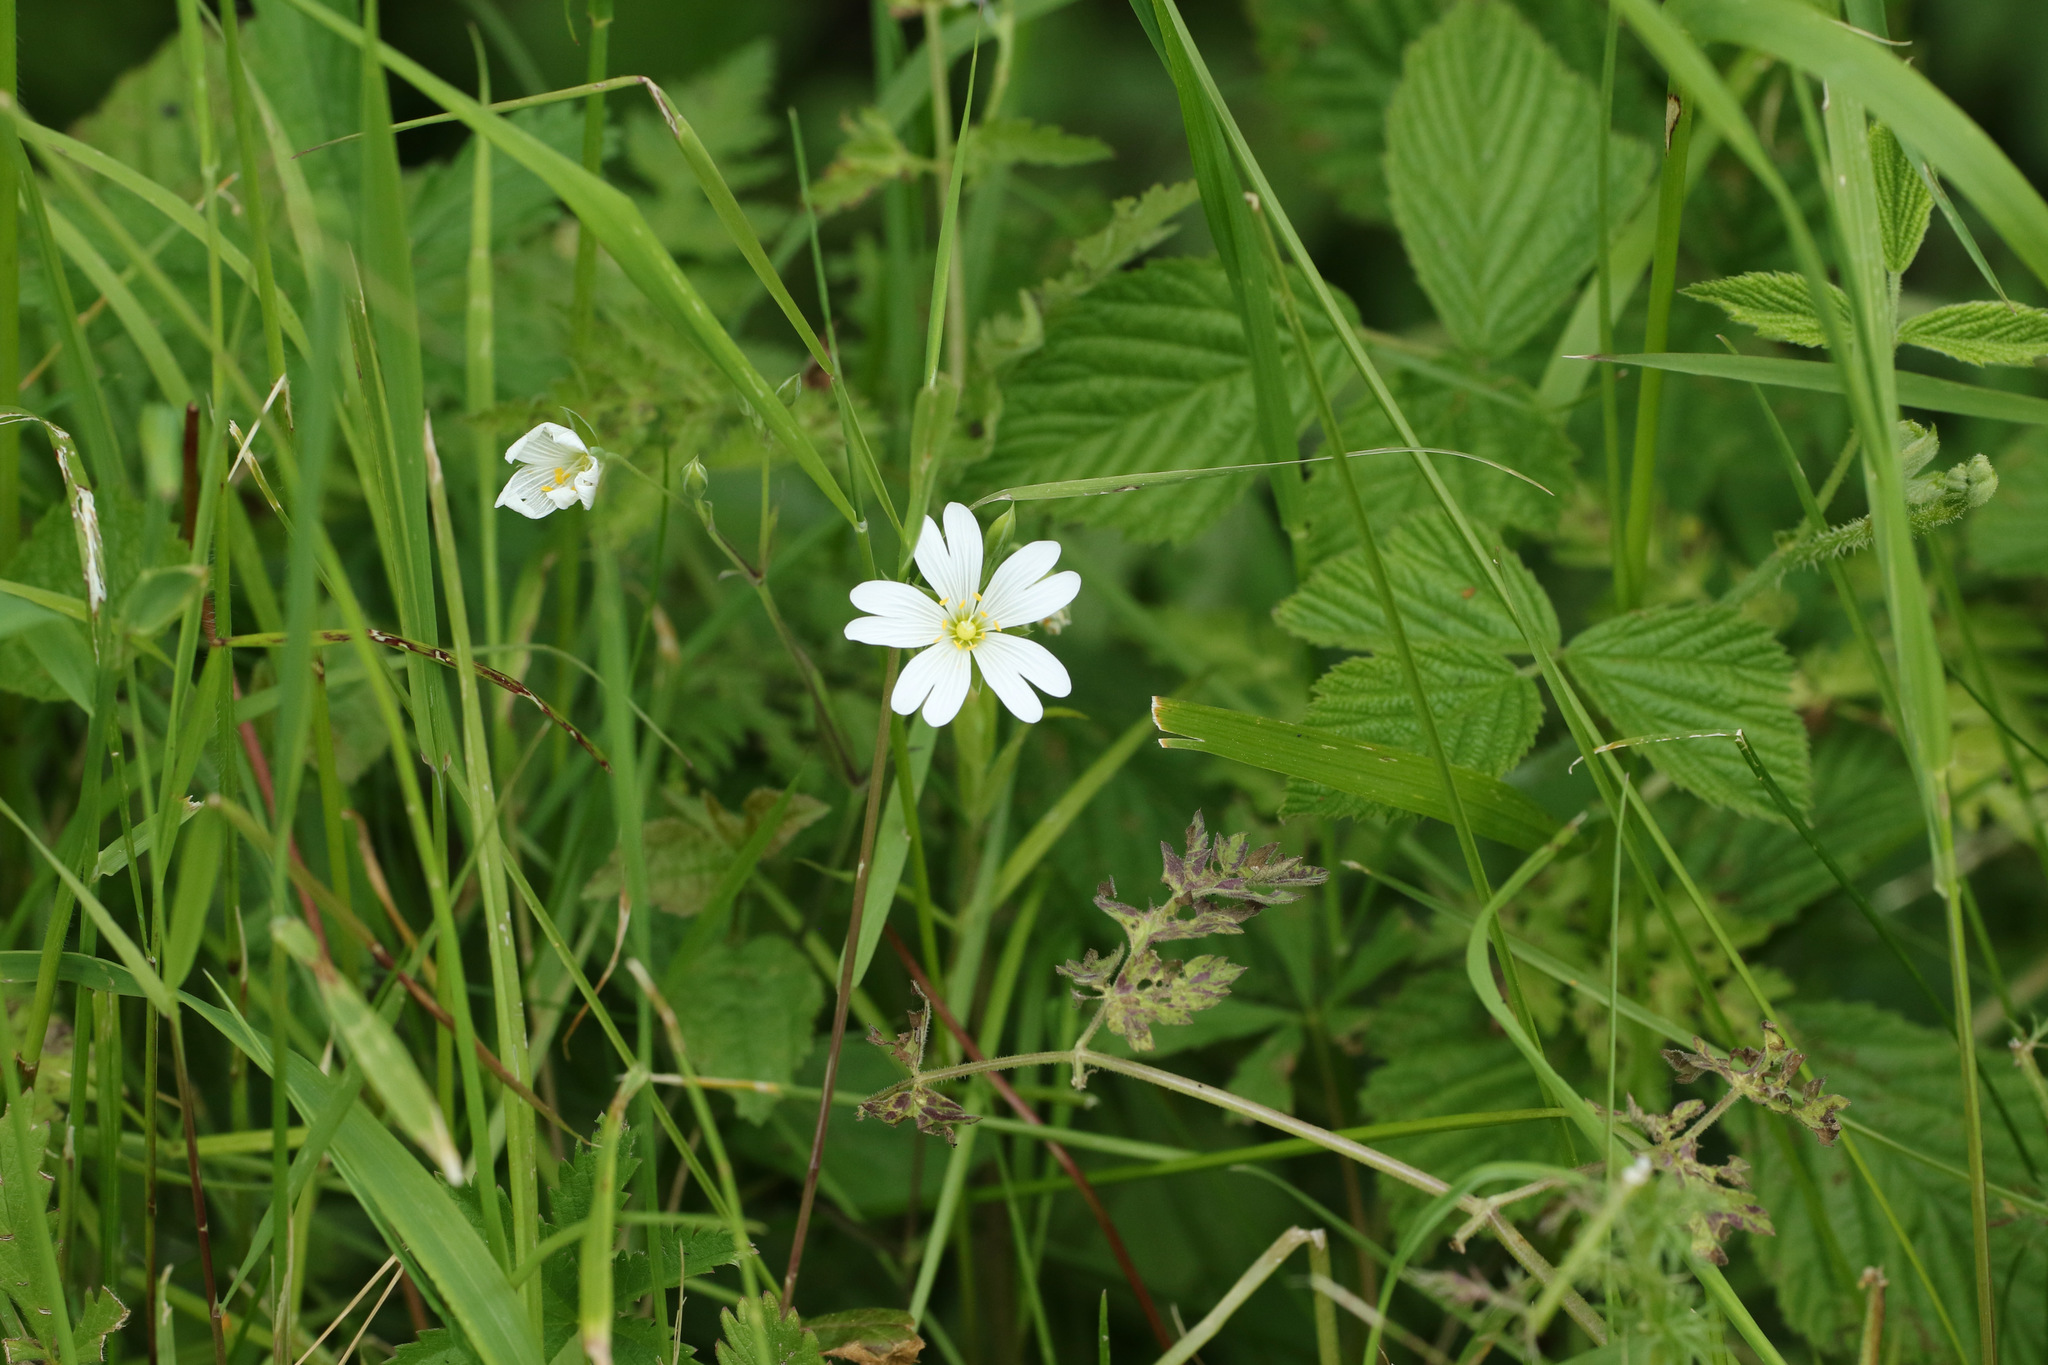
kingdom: Plantae
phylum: Tracheophyta
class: Magnoliopsida
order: Caryophyllales
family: Caryophyllaceae
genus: Rabelera
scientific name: Rabelera holostea
